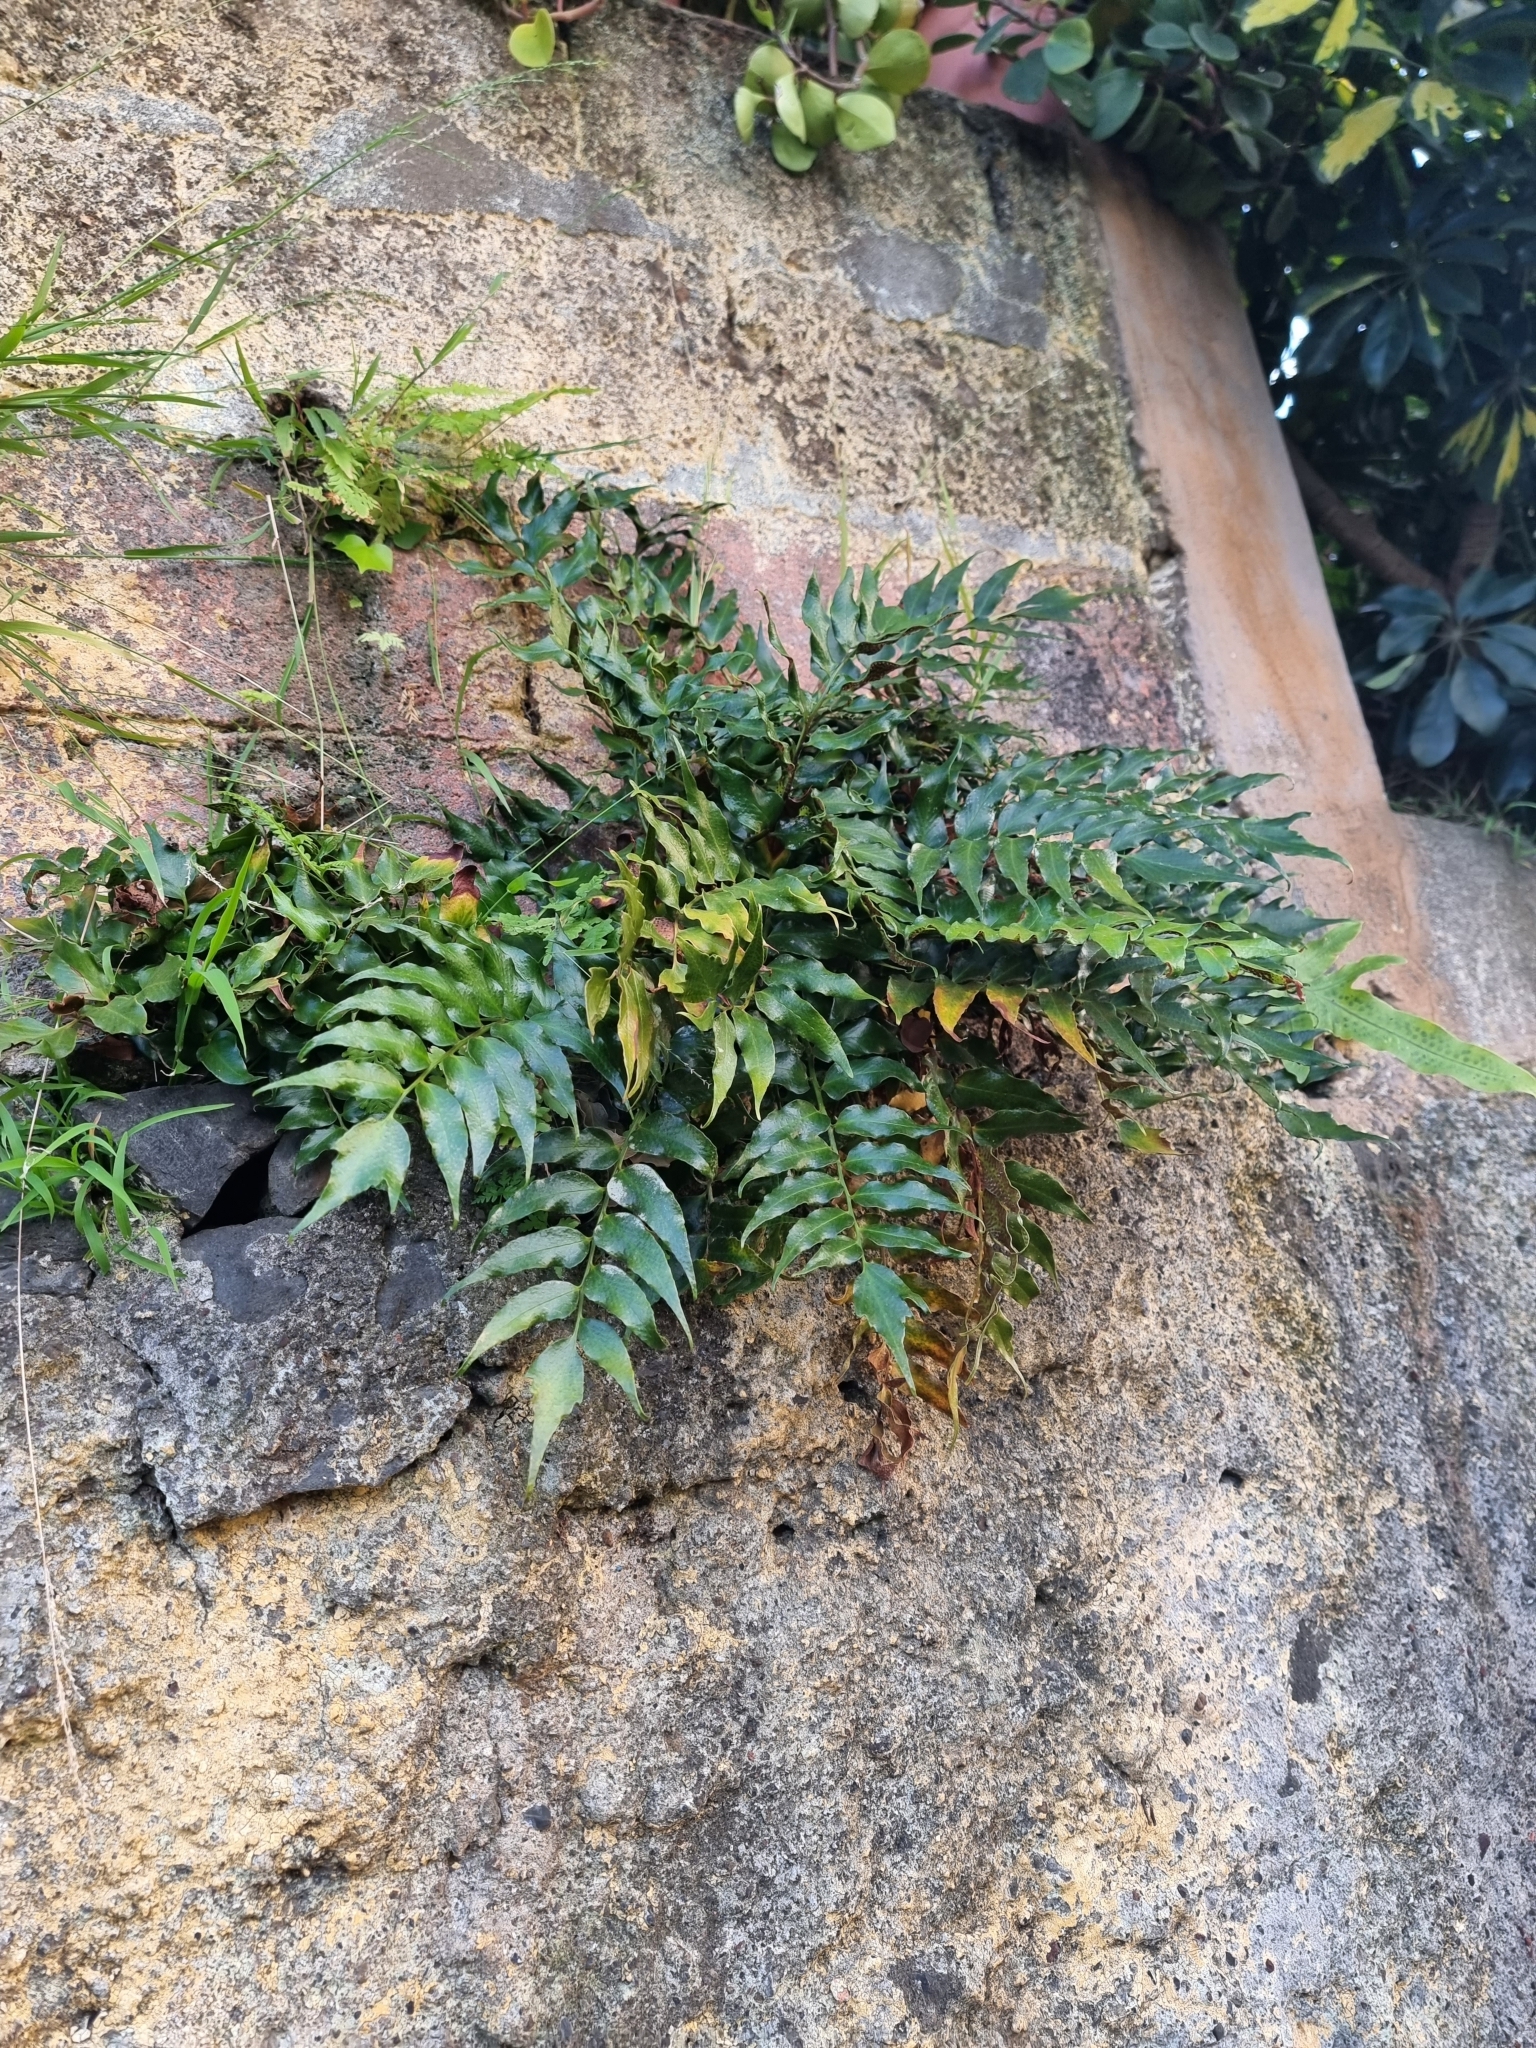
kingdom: Plantae
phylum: Tracheophyta
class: Polypodiopsida
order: Polypodiales
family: Dryopteridaceae
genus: Cyrtomium
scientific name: Cyrtomium falcatum
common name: House holly-fern
